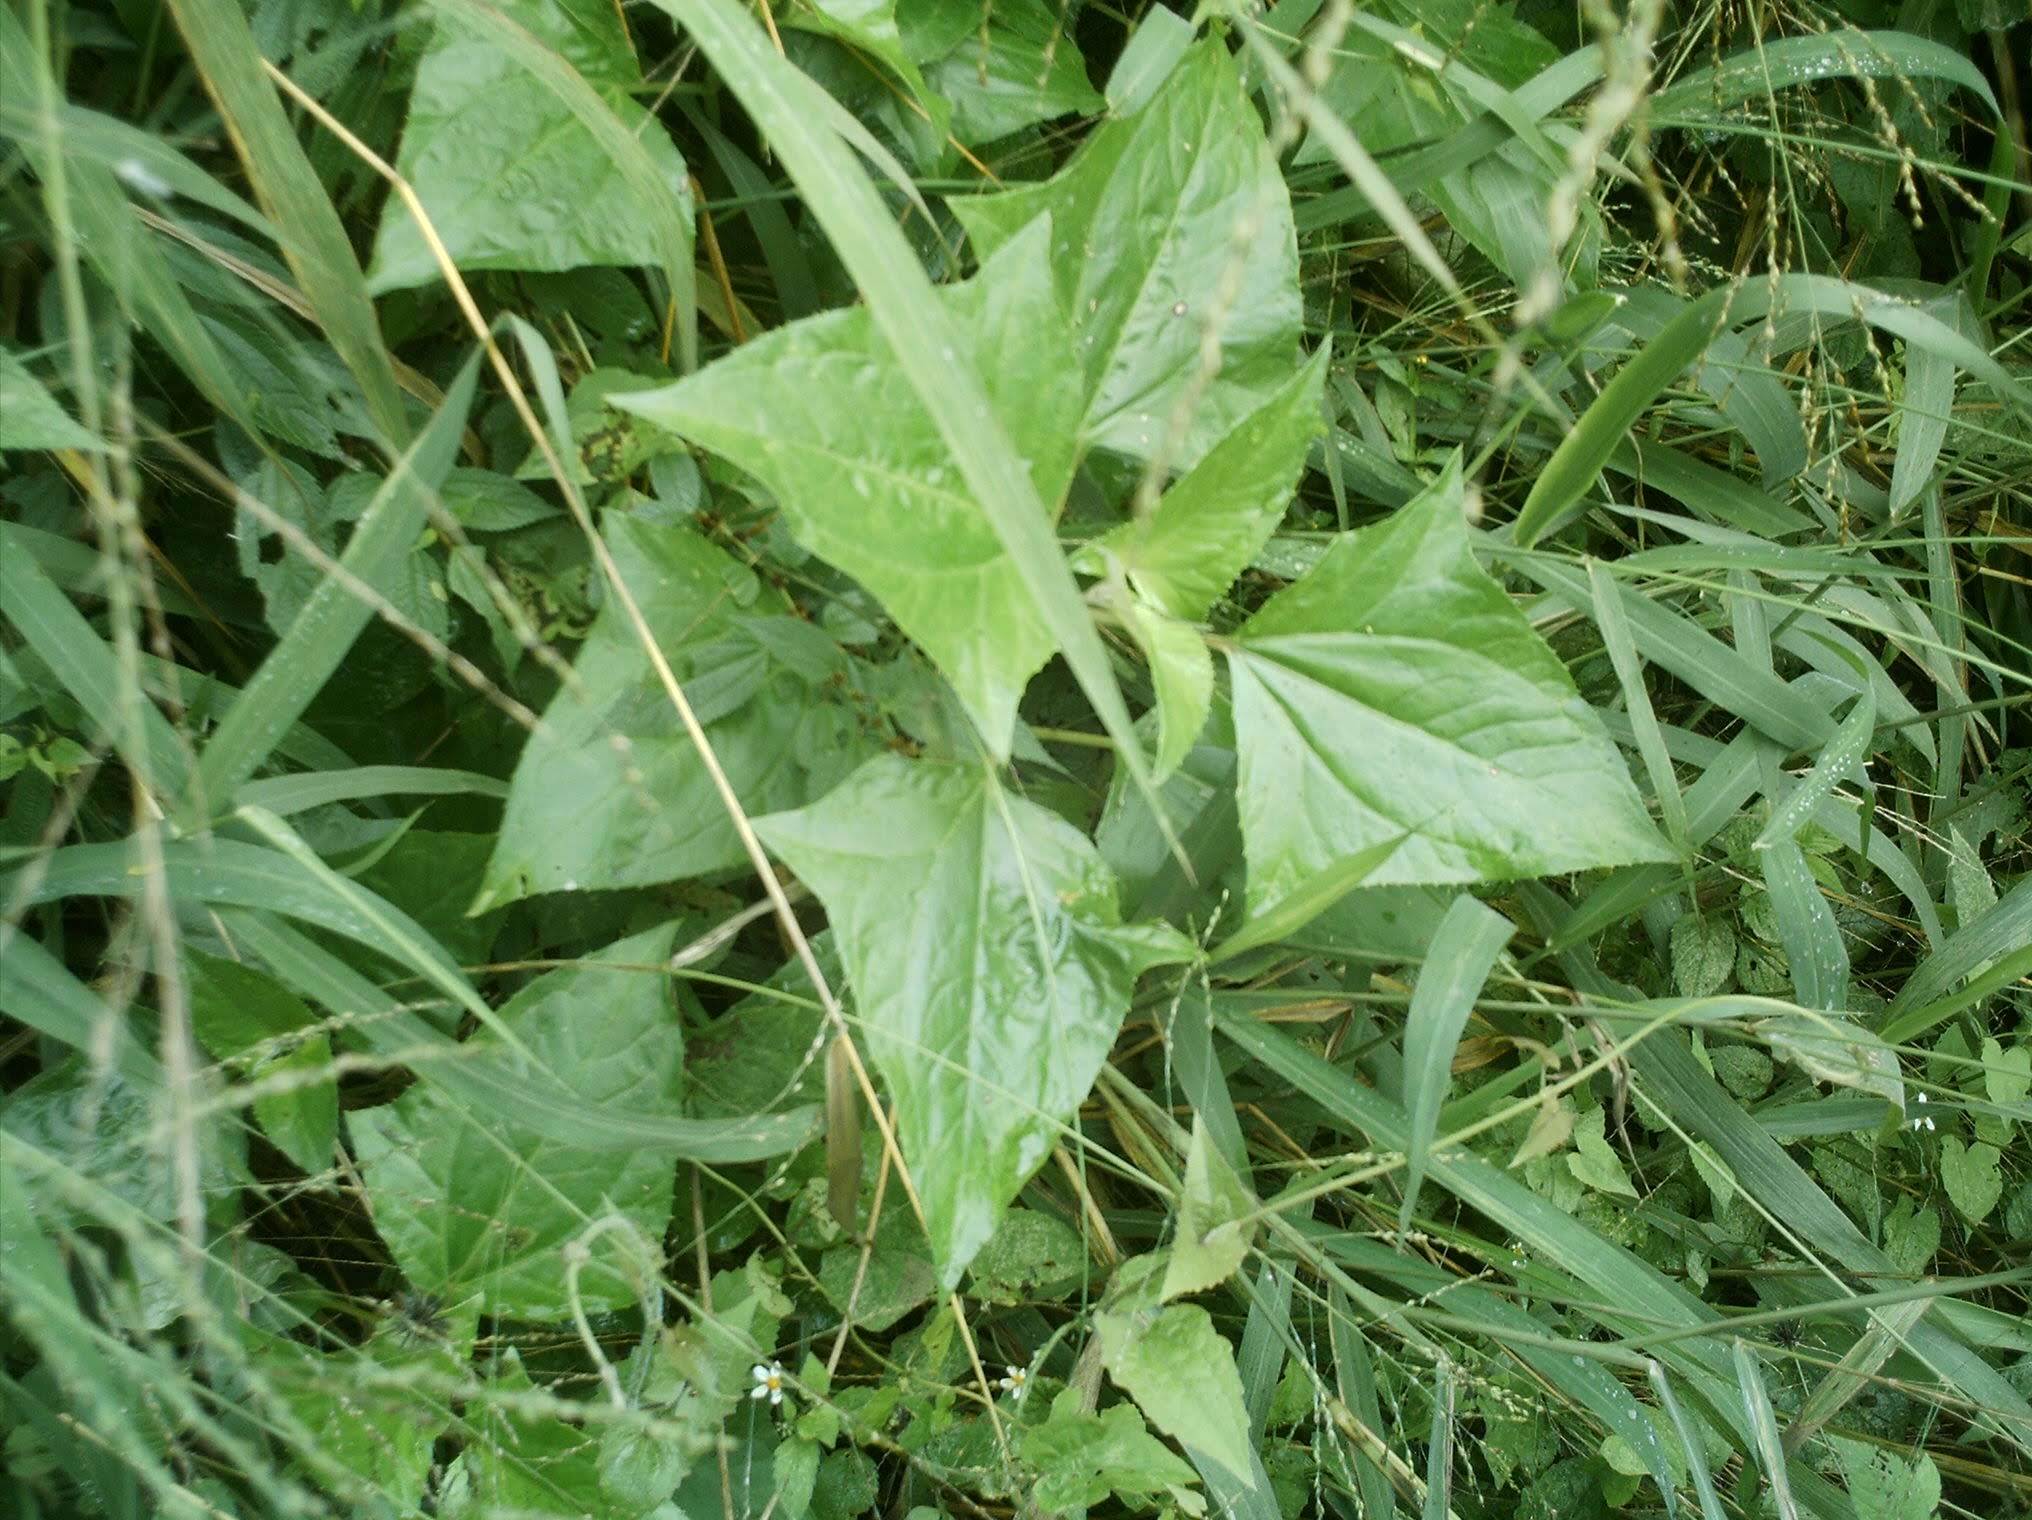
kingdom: Plantae
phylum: Tracheophyta
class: Magnoliopsida
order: Asterales
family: Asteraceae
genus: Munnozia
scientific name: Munnozia hastifolia
